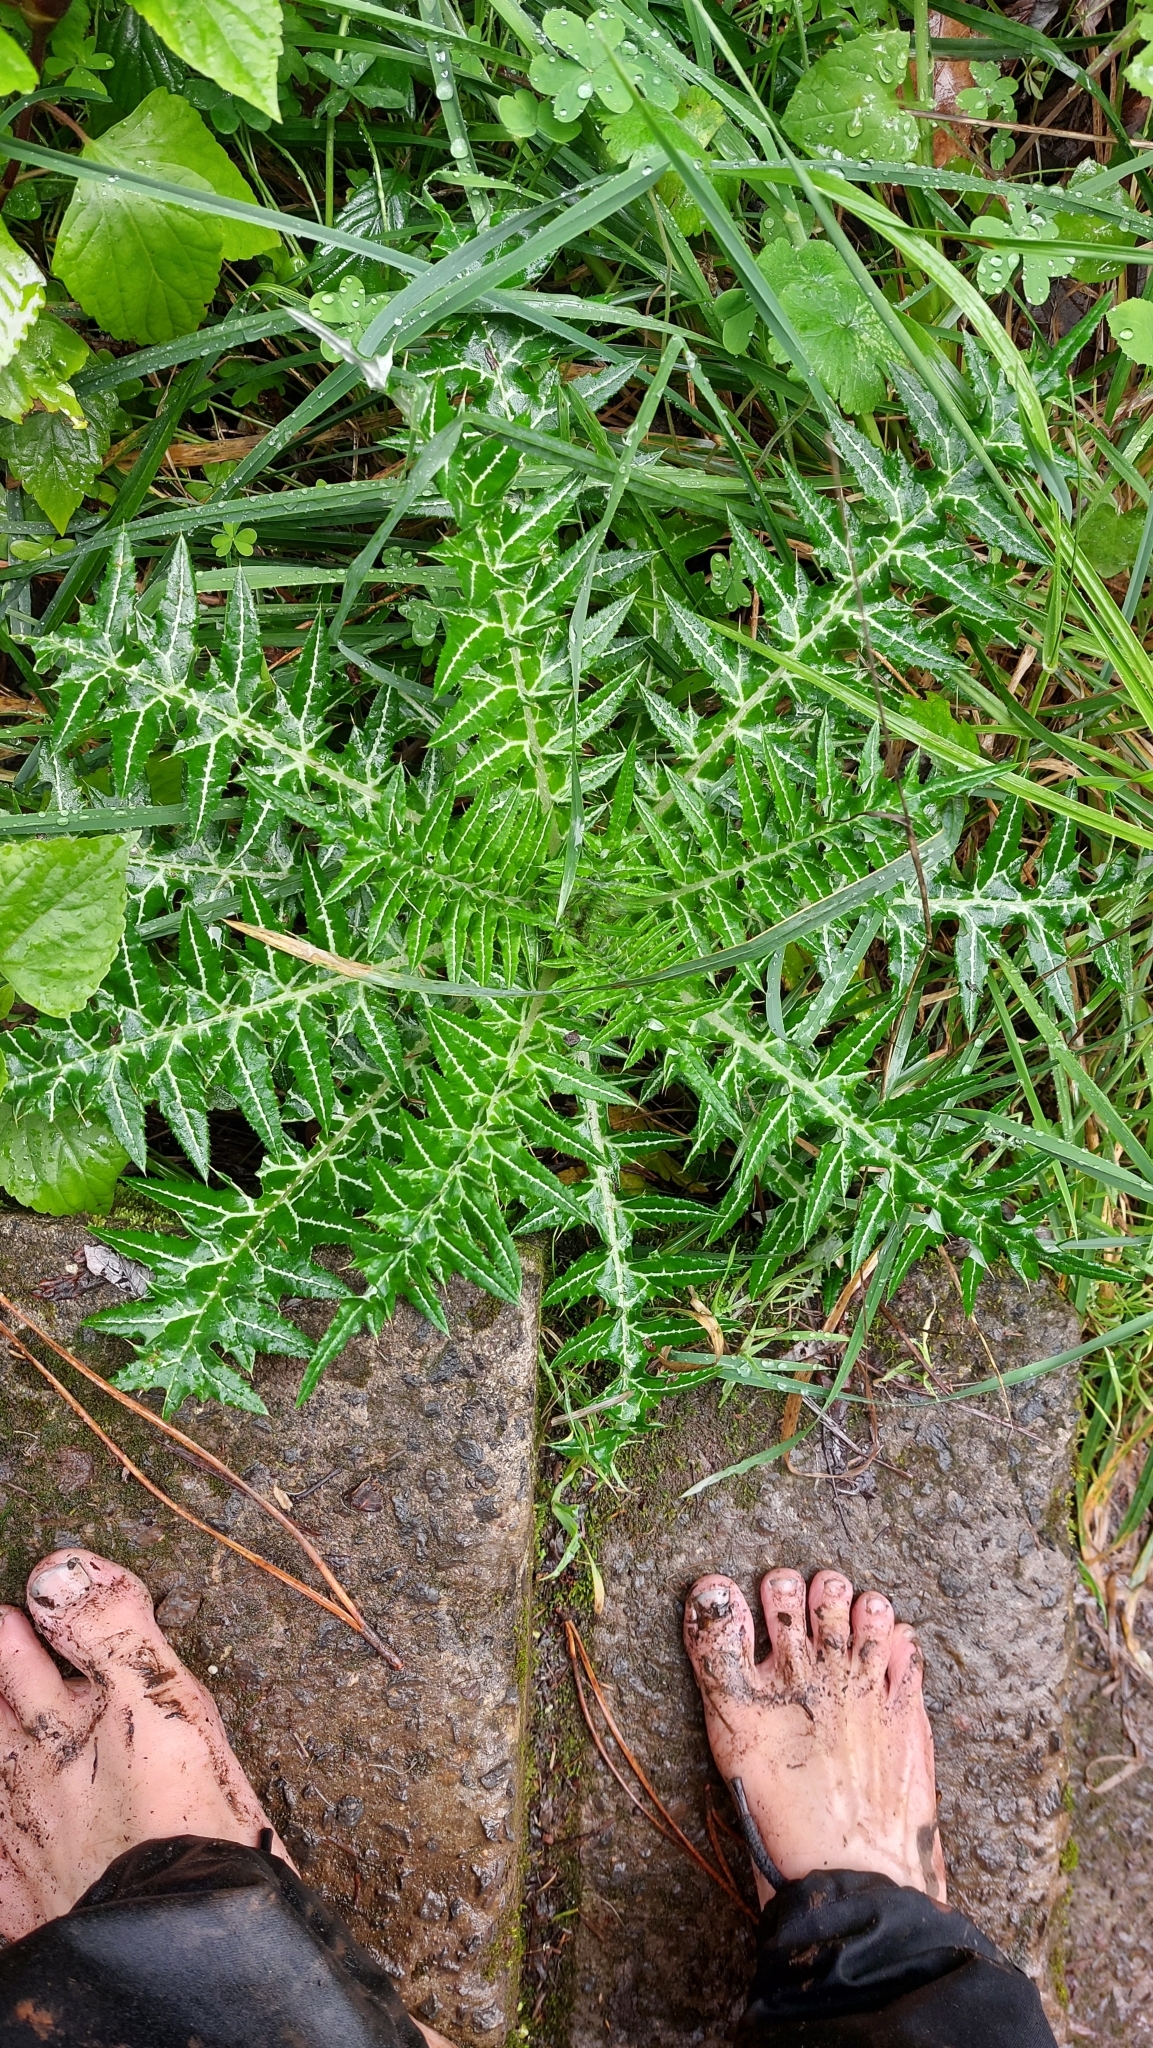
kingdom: Plantae
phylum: Tracheophyta
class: Magnoliopsida
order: Asterales
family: Asteraceae
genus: Galactites
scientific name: Galactites tomentosa
